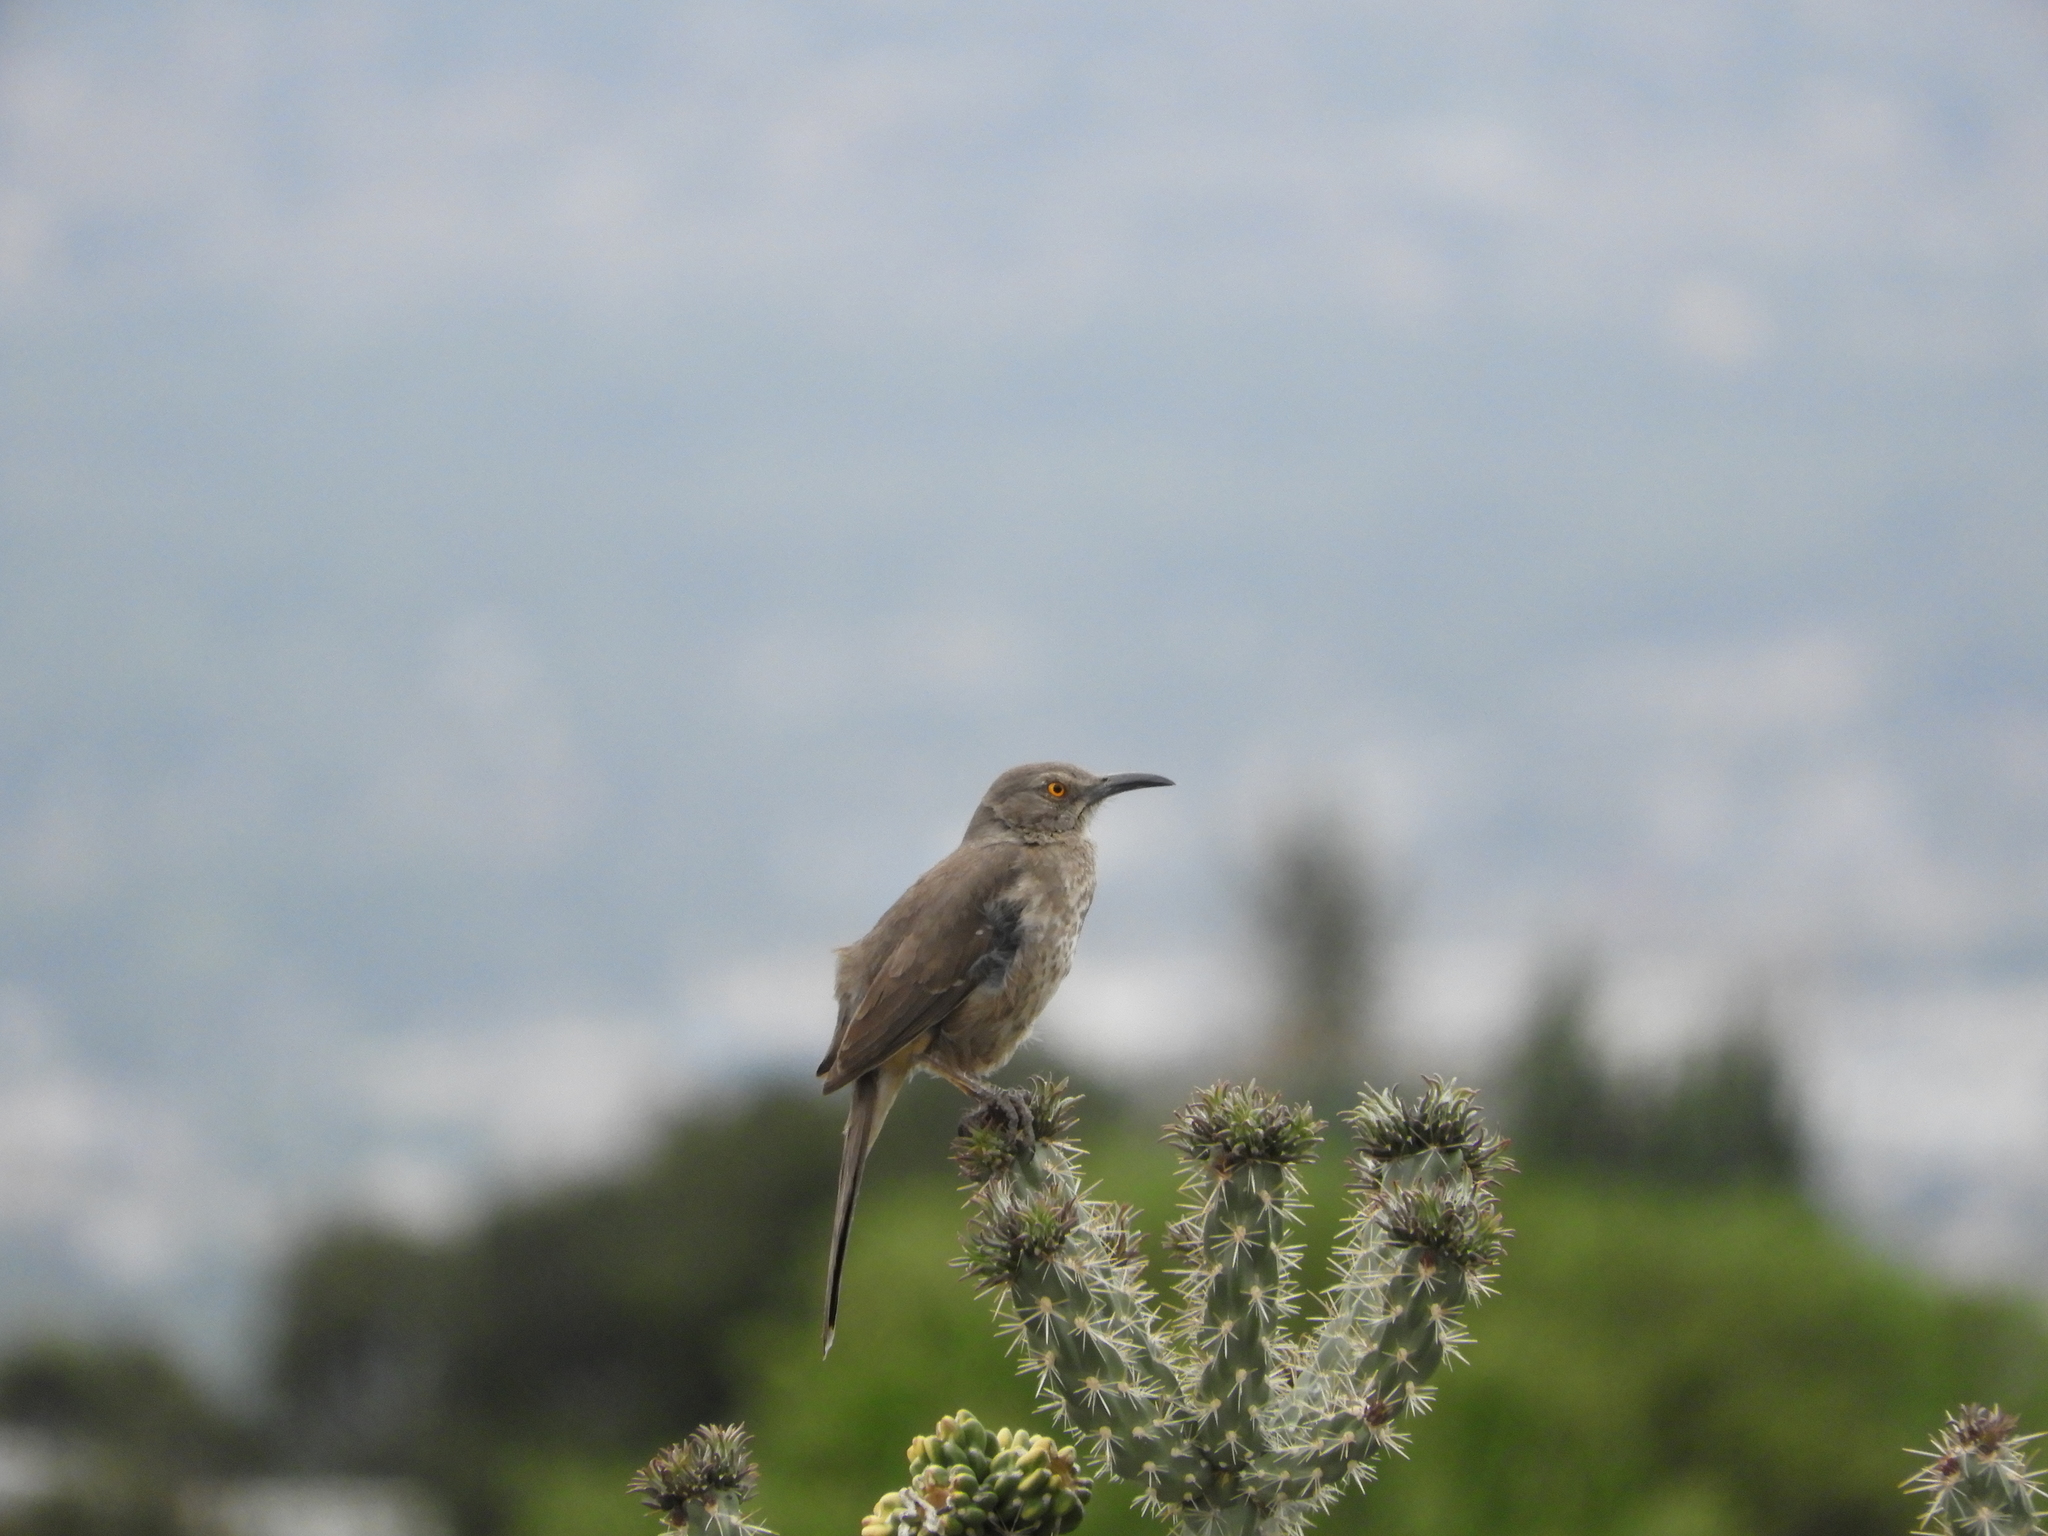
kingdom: Animalia
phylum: Chordata
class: Aves
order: Passeriformes
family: Mimidae
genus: Toxostoma
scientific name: Toxostoma curvirostre
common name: Curve-billed thrasher
